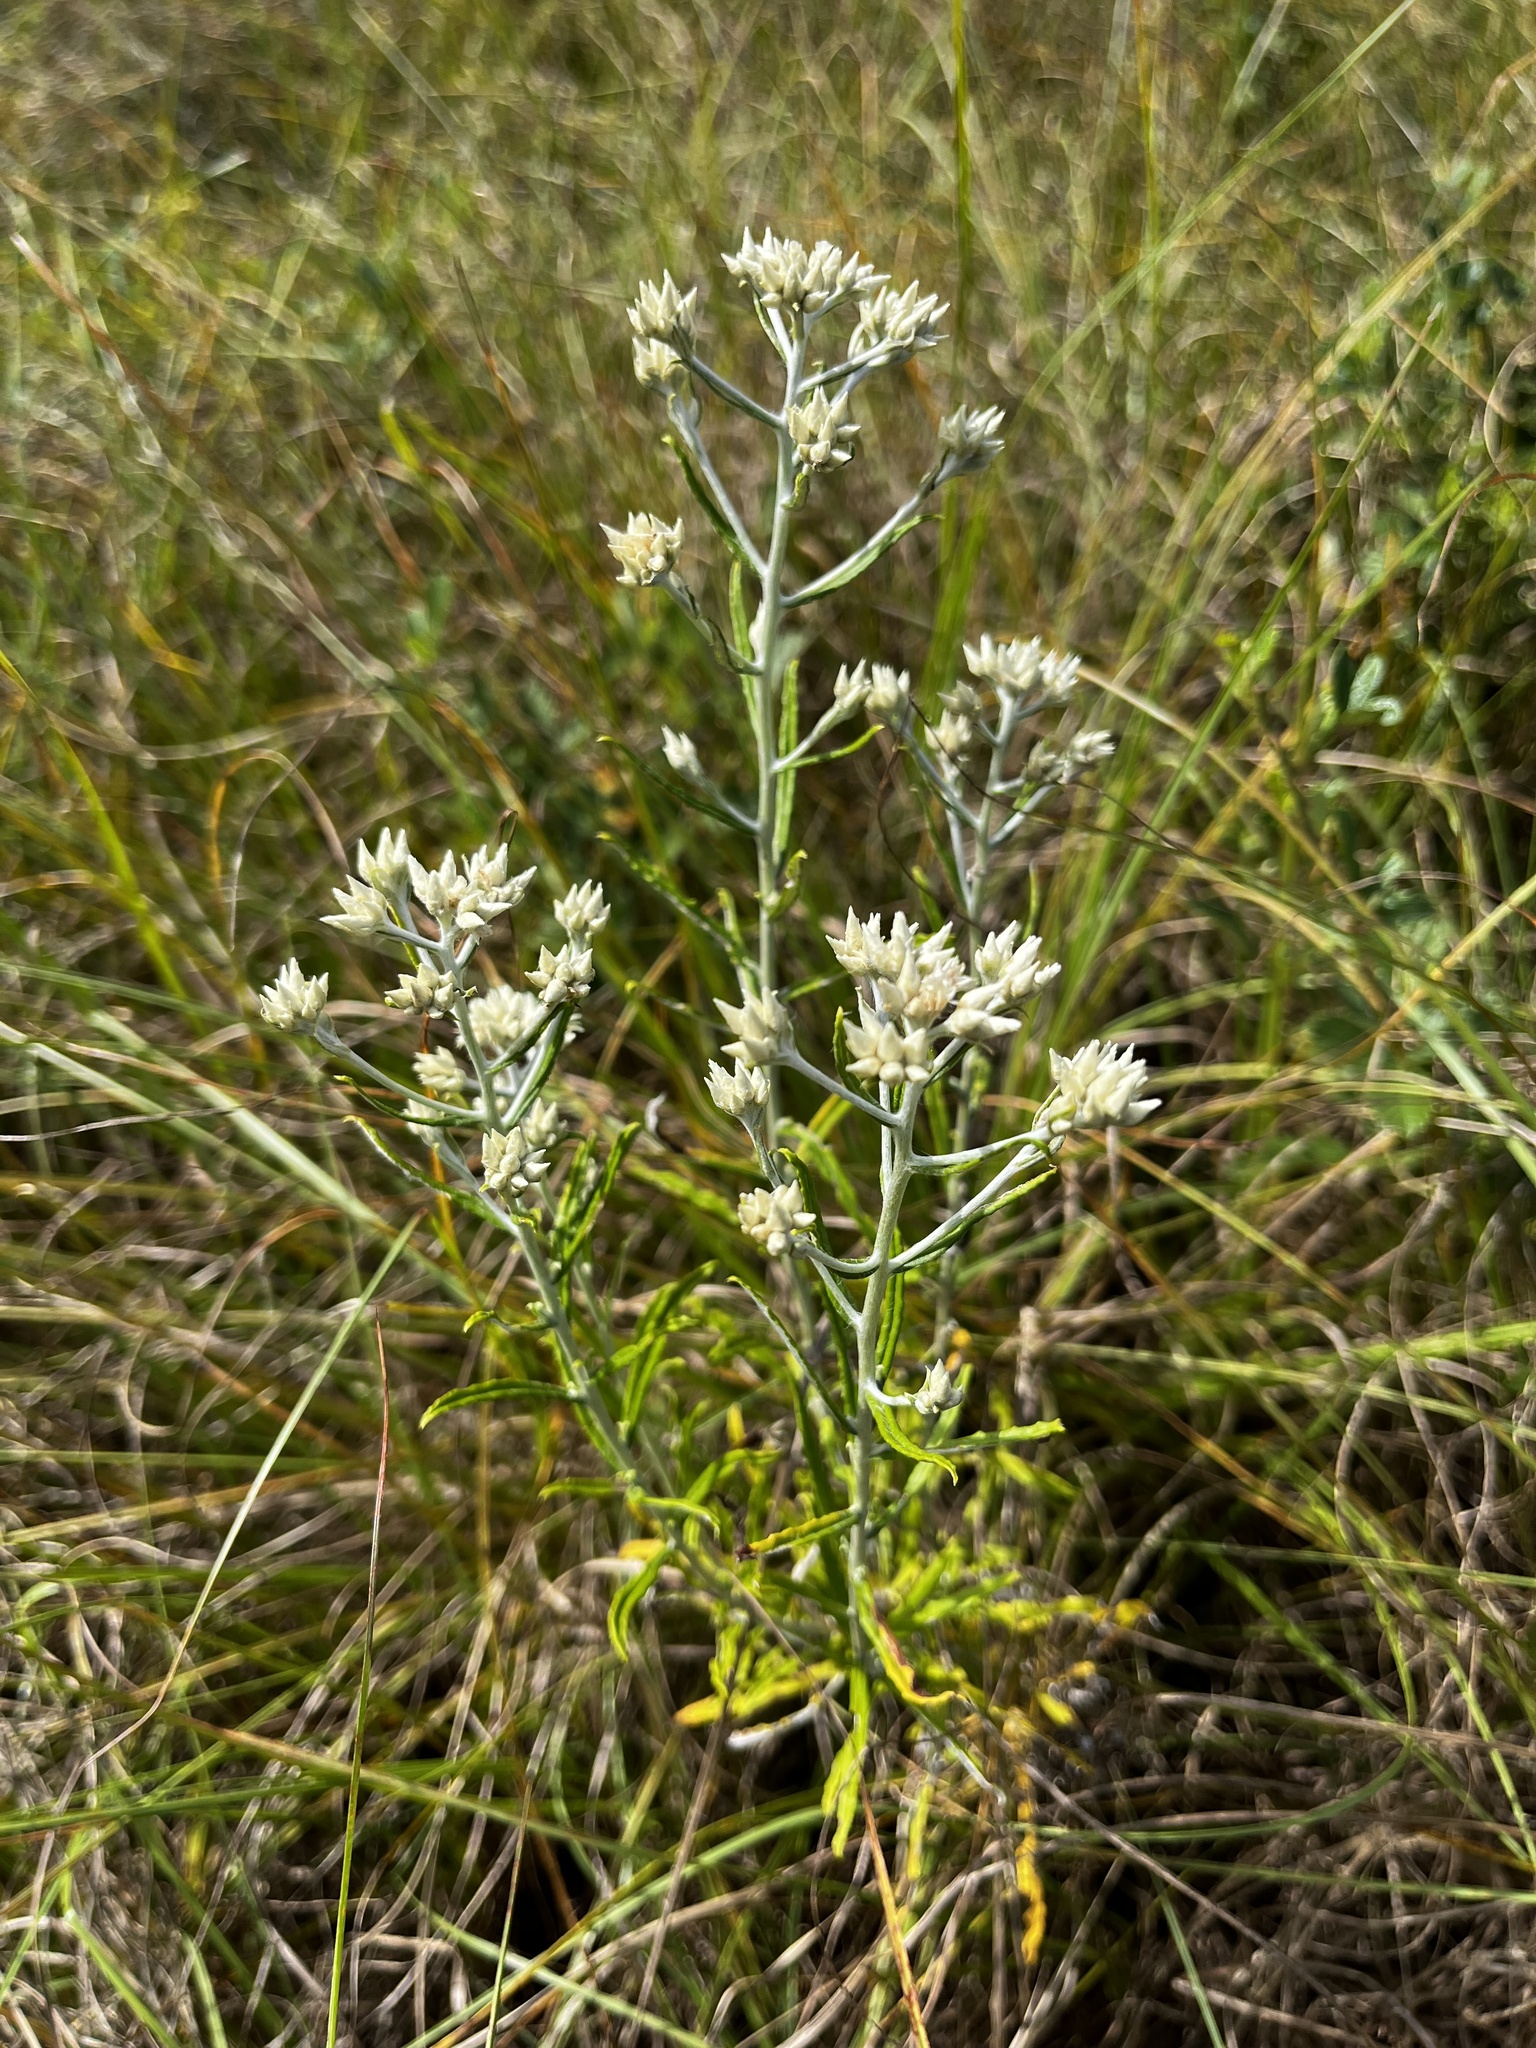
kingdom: Plantae
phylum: Tracheophyta
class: Magnoliopsida
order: Asterales
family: Asteraceae
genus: Pseudognaphalium
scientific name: Pseudognaphalium obtusifolium
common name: Eastern rabbit-tobacco
